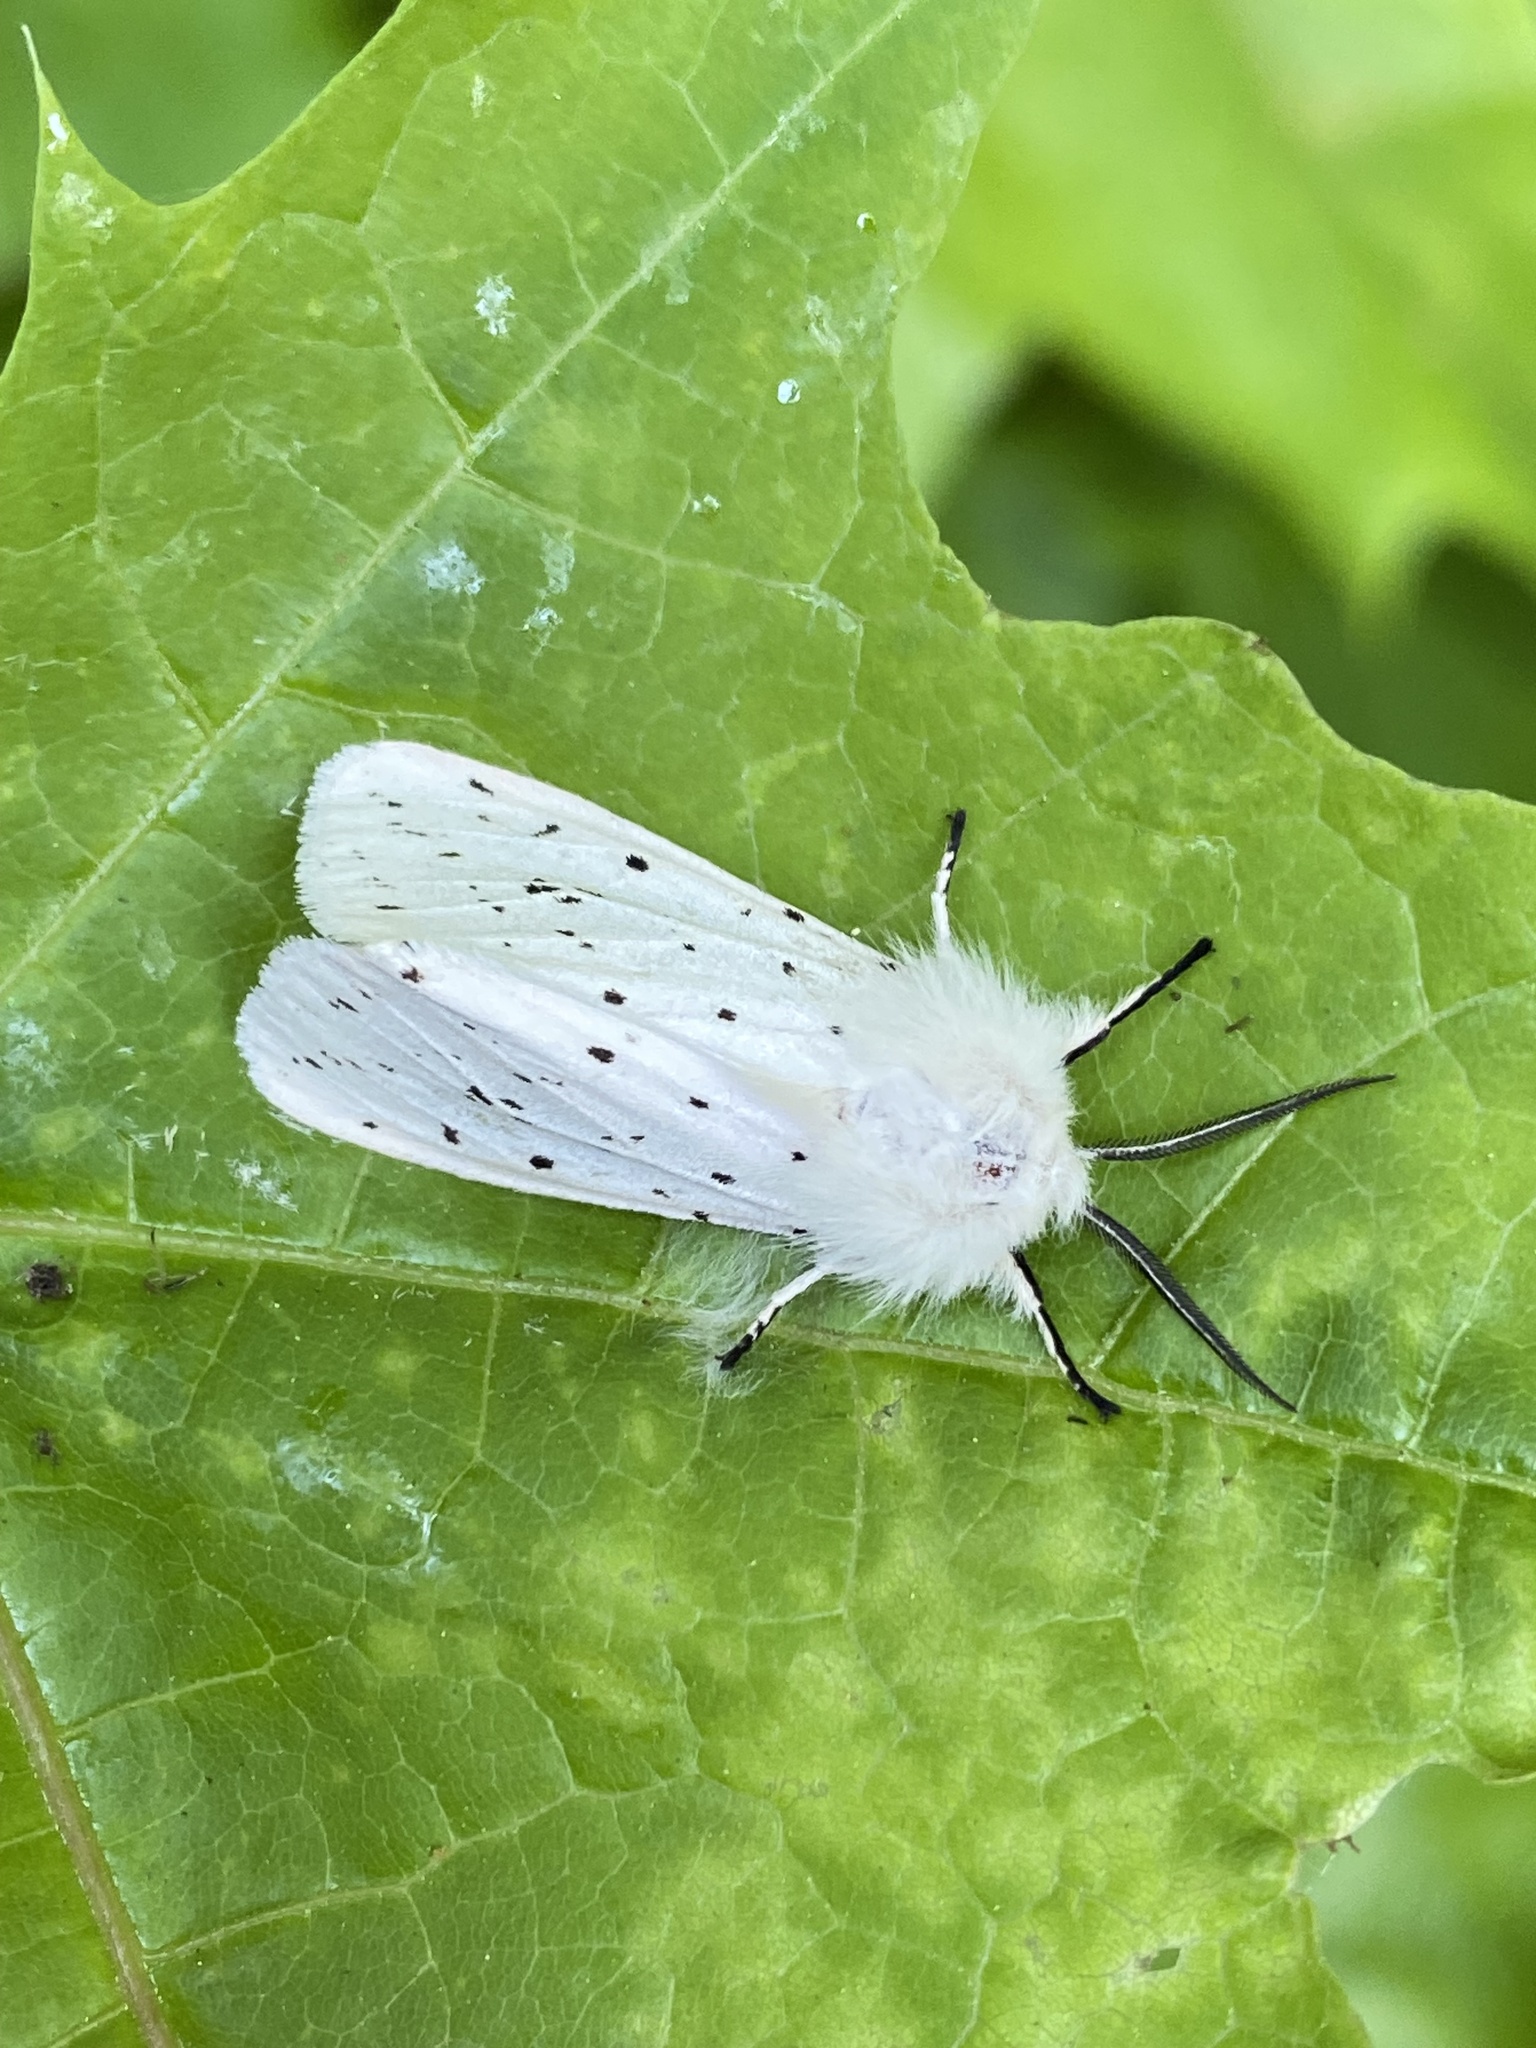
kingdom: Animalia
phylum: Arthropoda
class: Insecta
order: Lepidoptera
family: Erebidae
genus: Spilosoma
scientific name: Spilosoma lubricipeda
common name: White ermine
